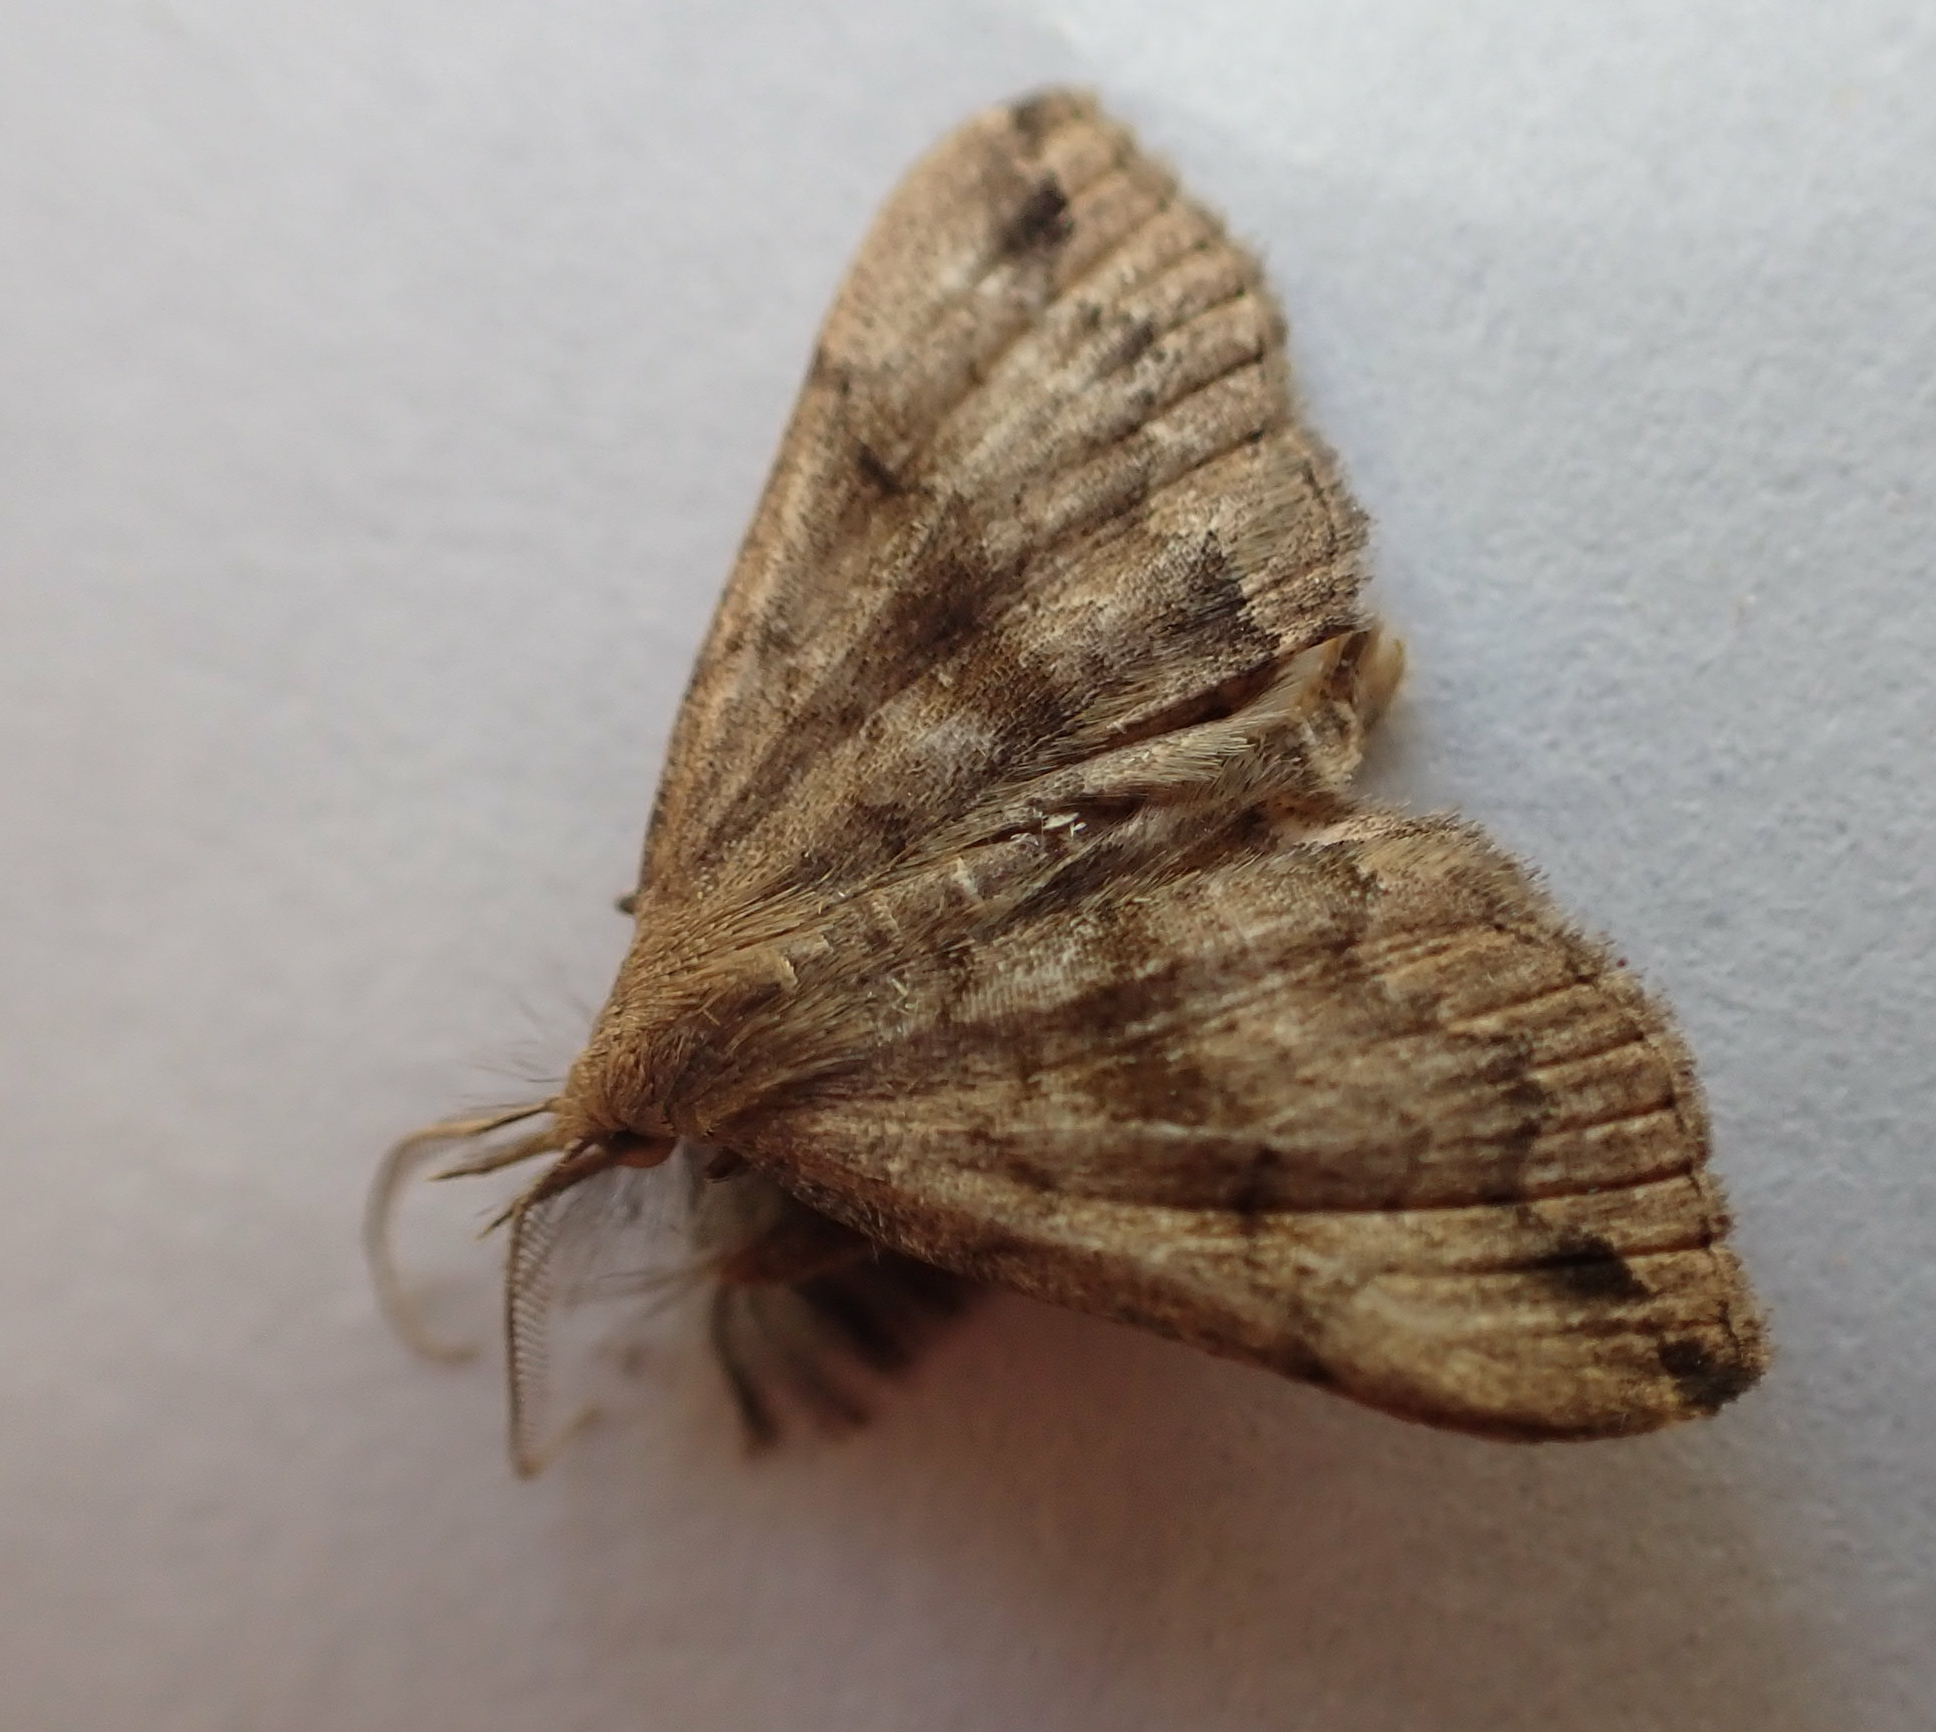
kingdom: Animalia
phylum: Arthropoda
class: Insecta
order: Lepidoptera
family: Erebidae
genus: Phalaenostola
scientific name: Phalaenostola eumelusalis
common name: Dark phalaenostola moth
